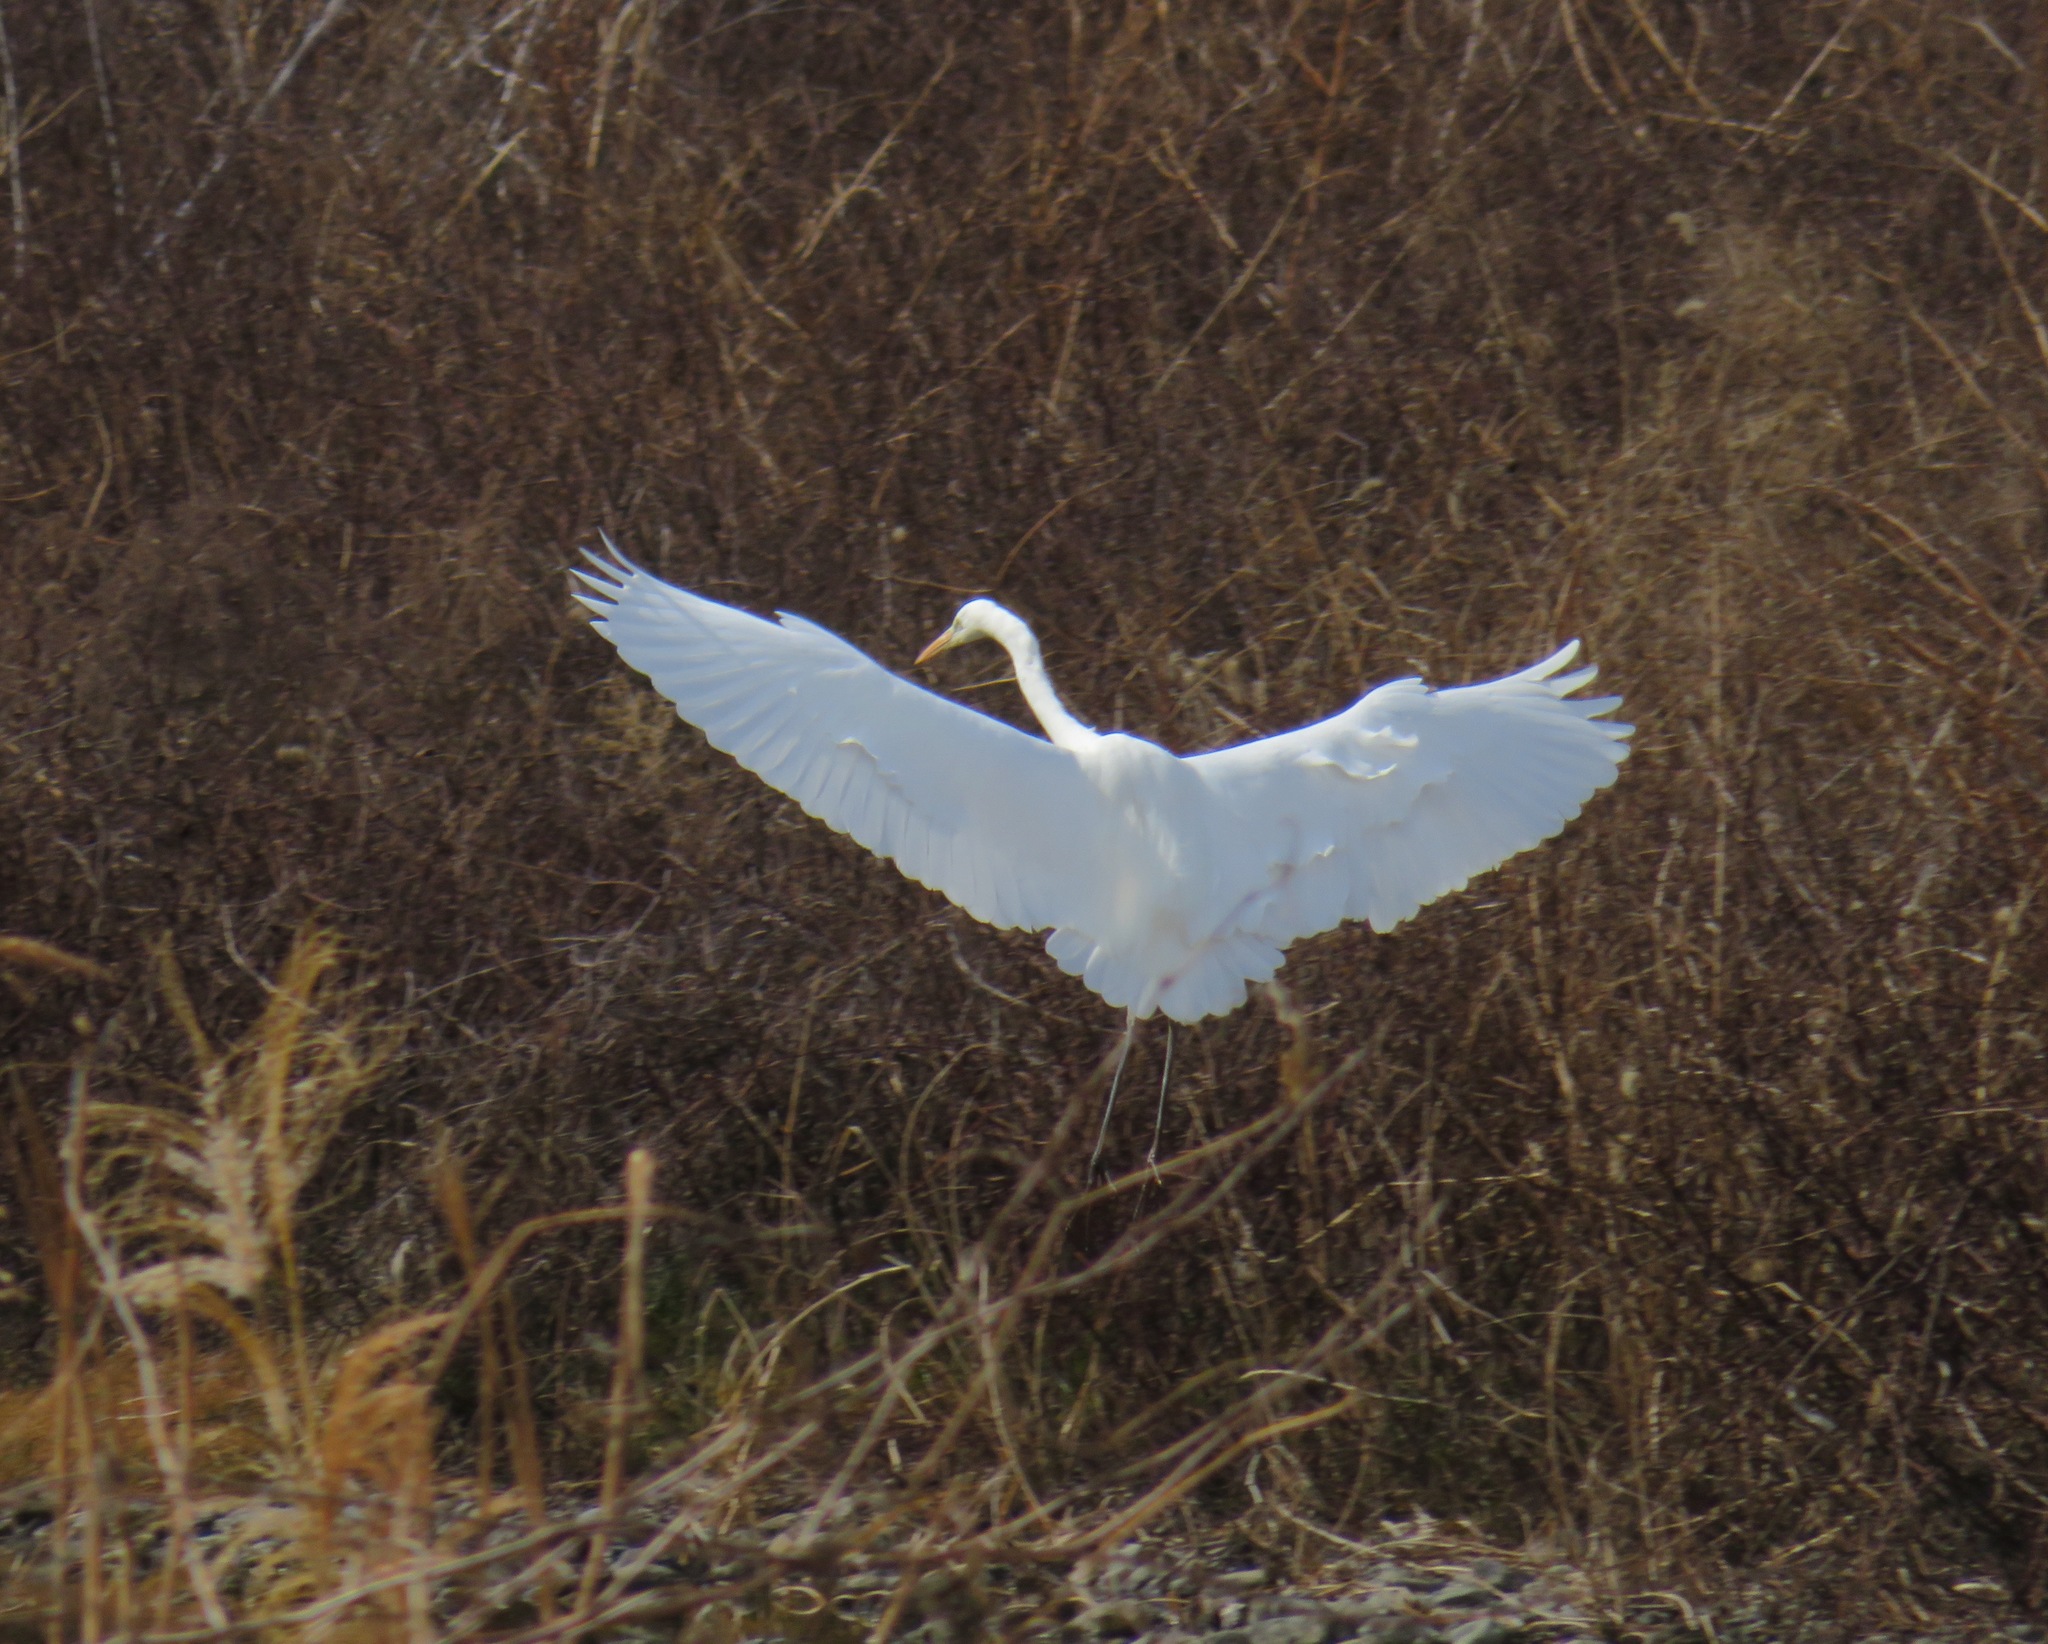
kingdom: Animalia
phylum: Chordata
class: Aves
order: Pelecaniformes
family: Ardeidae
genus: Ardea
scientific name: Ardea alba
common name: Great egret
